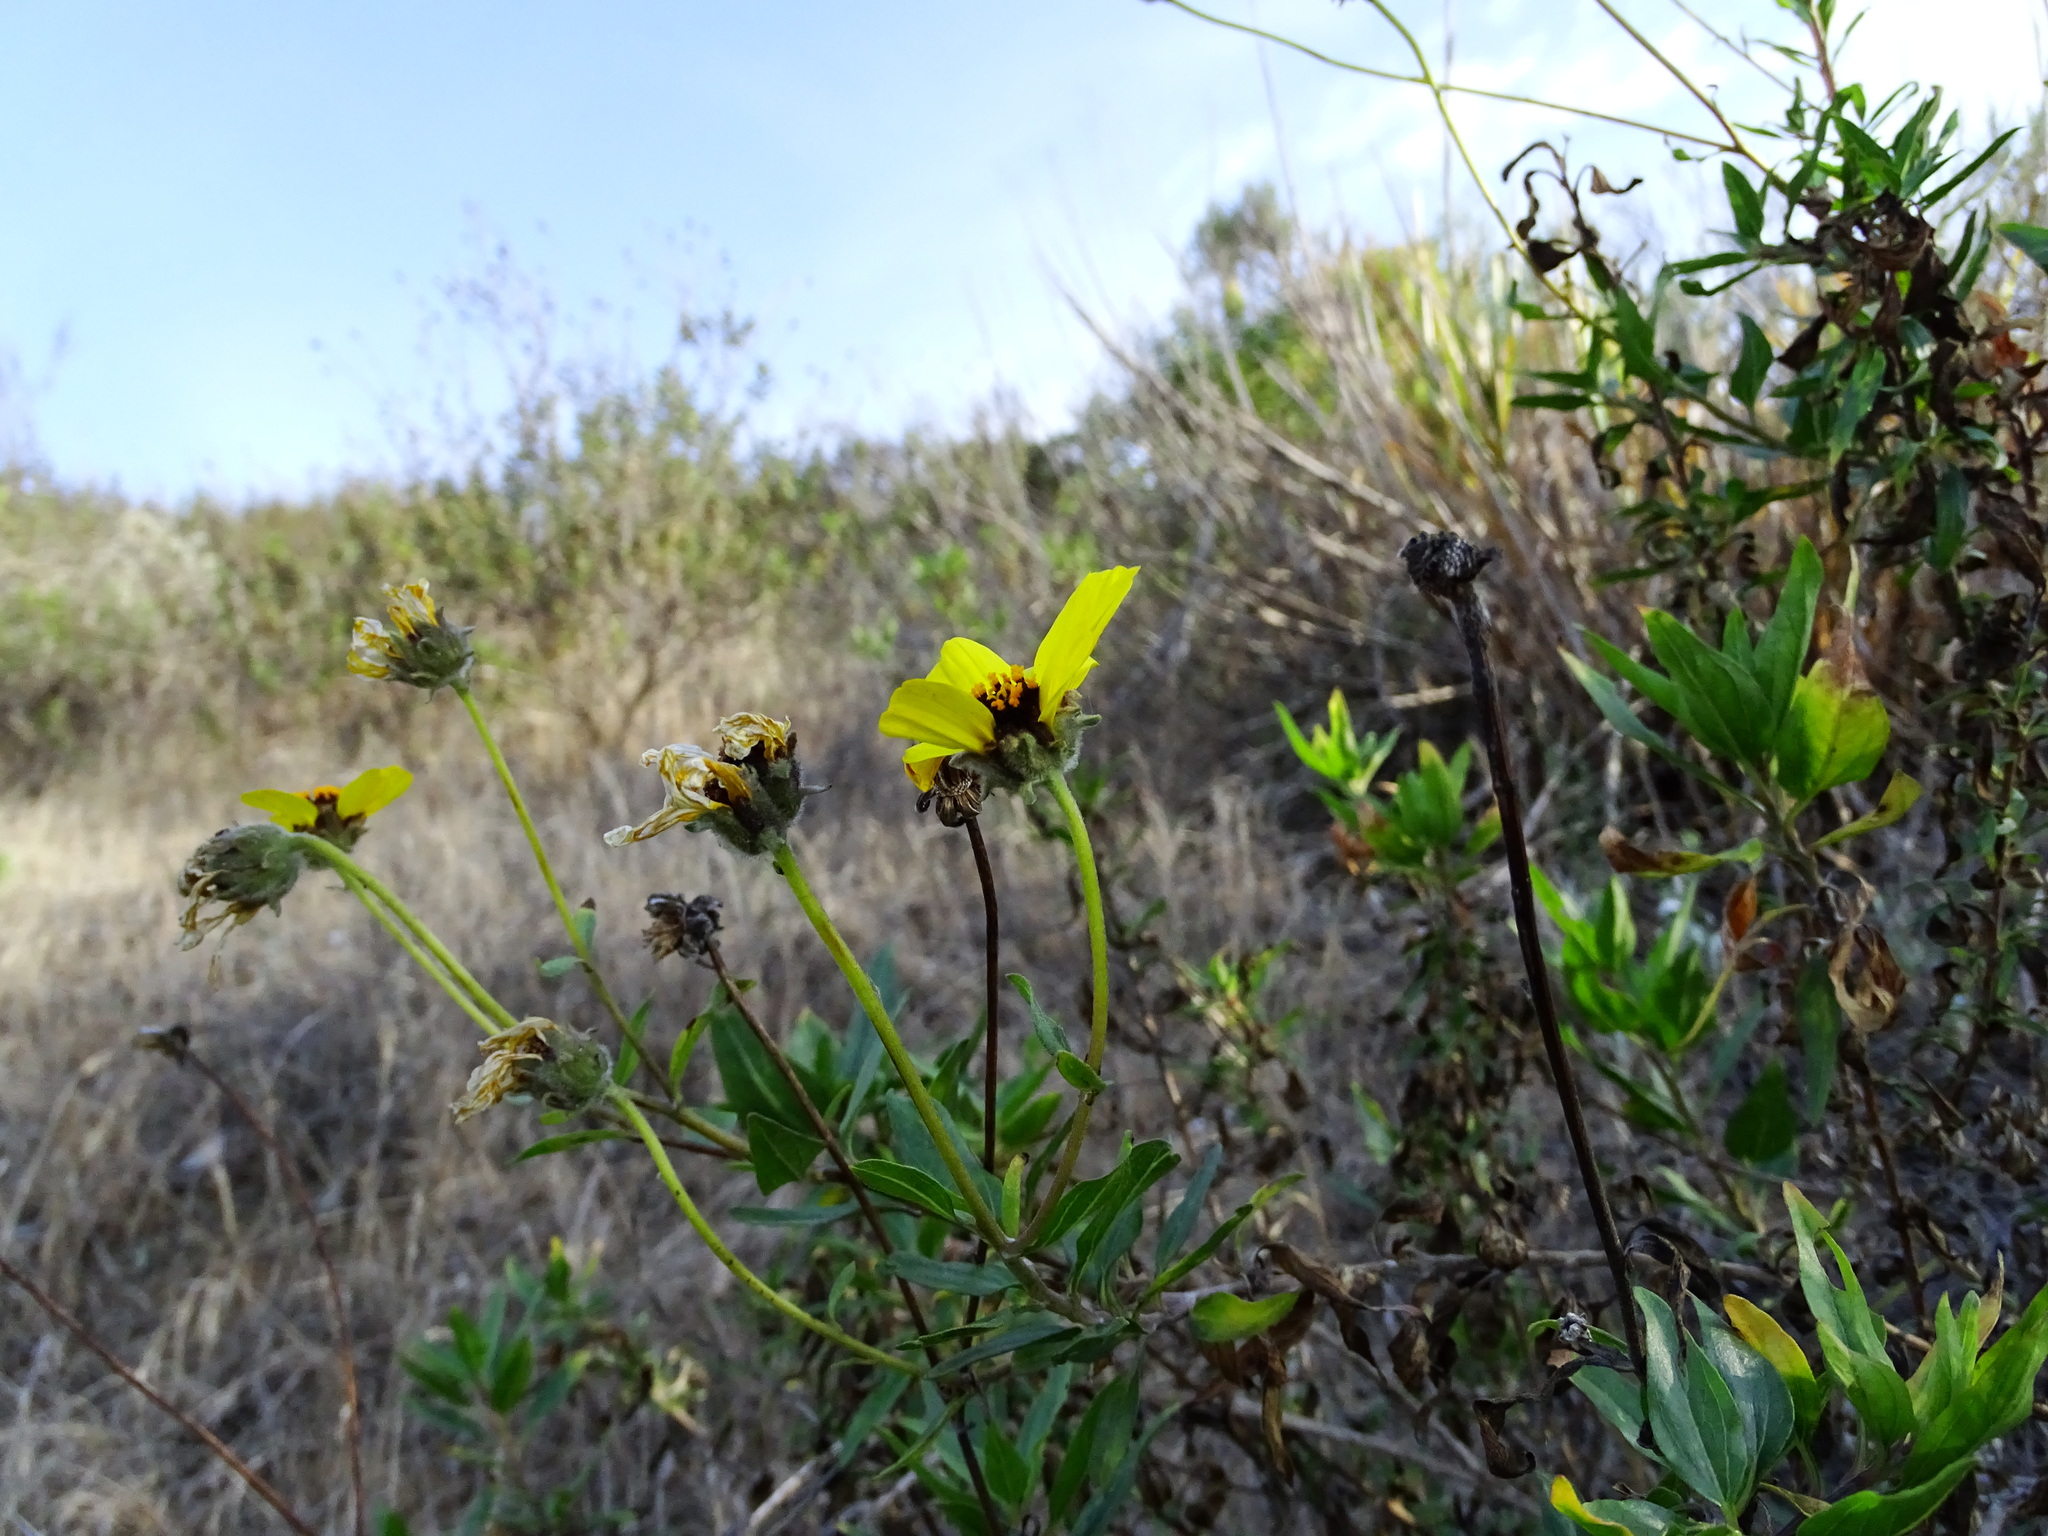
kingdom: Plantae
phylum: Tracheophyta
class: Magnoliopsida
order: Asterales
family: Asteraceae
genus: Encelia
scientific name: Encelia californica
